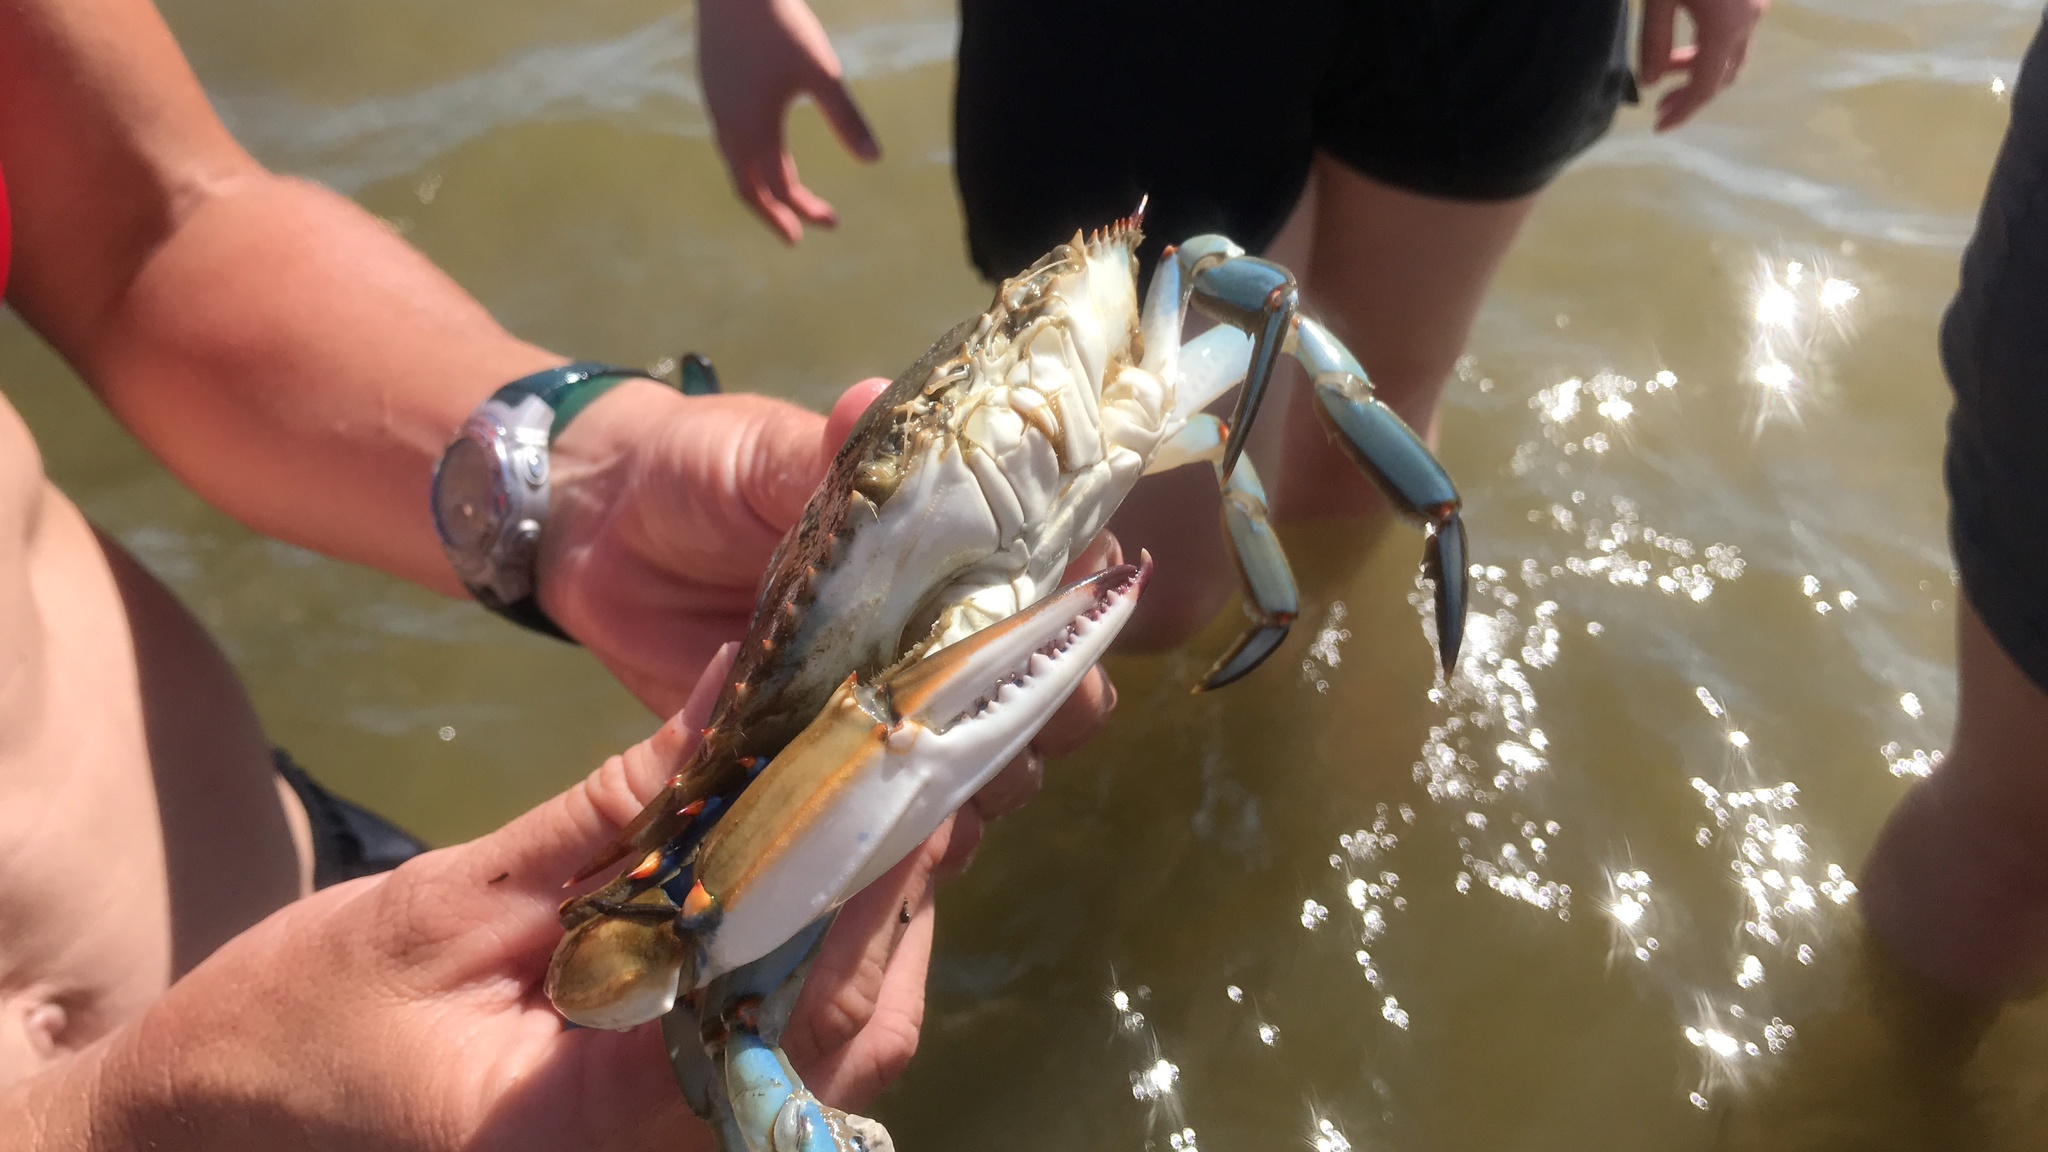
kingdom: Animalia
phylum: Arthropoda
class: Malacostraca
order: Decapoda
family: Portunidae
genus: Callinectes
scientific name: Callinectes sapidus
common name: Blue crab
